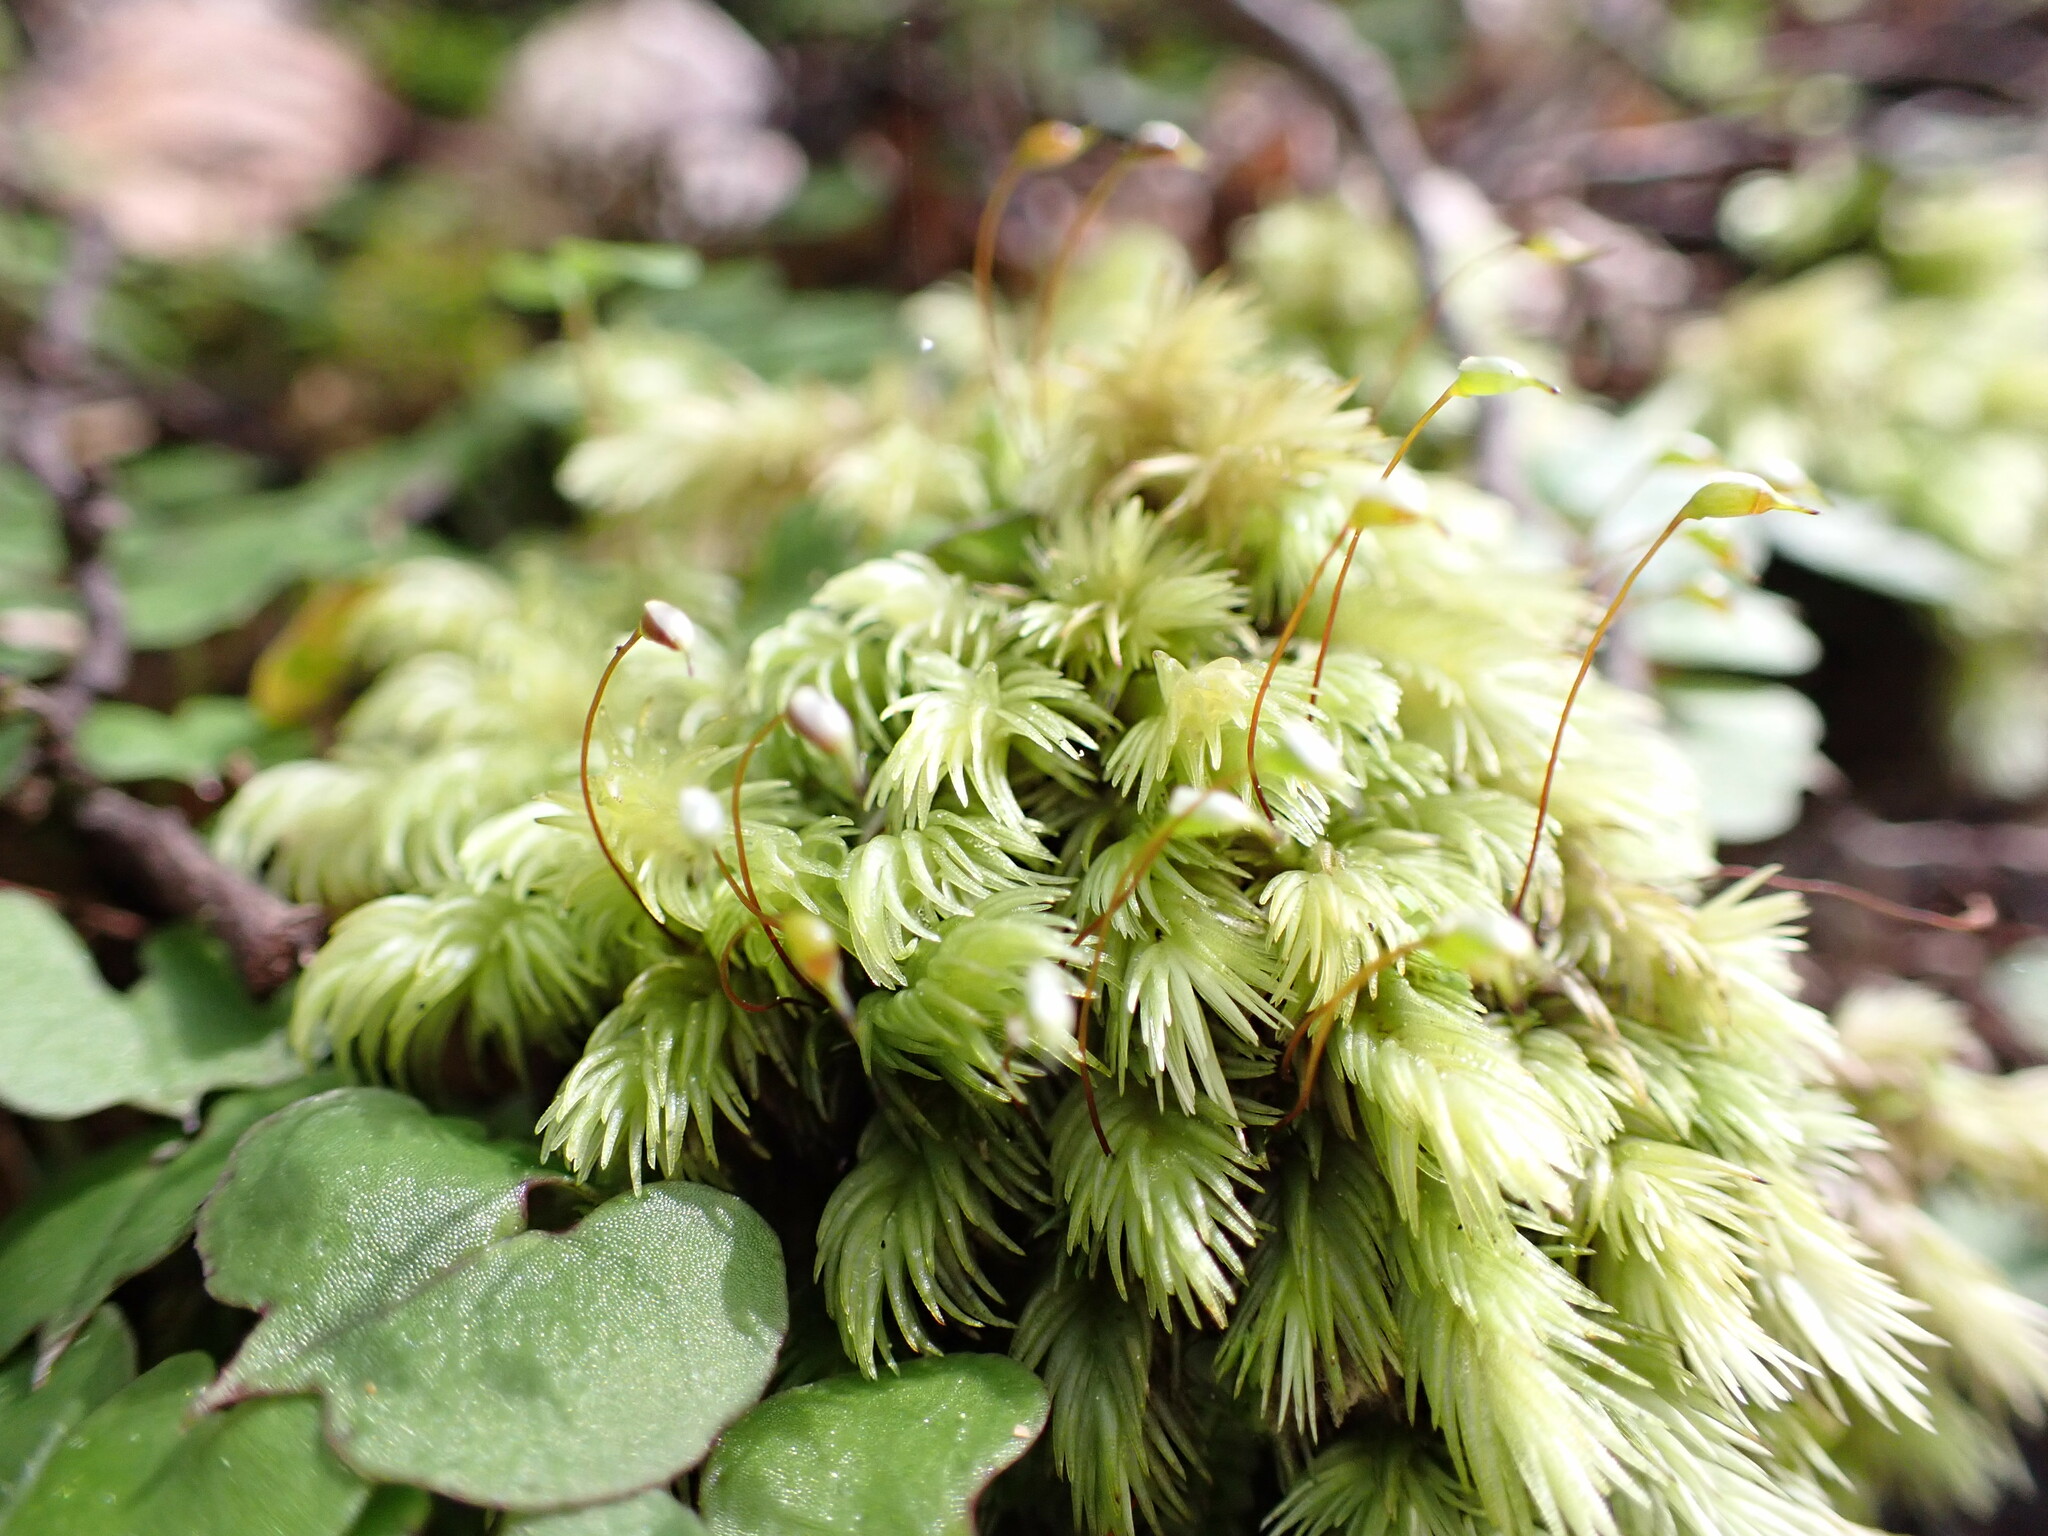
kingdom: Plantae
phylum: Bryophyta
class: Bryopsida
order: Dicranales
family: Leucobryaceae
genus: Leucobryum
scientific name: Leucobryum javense
